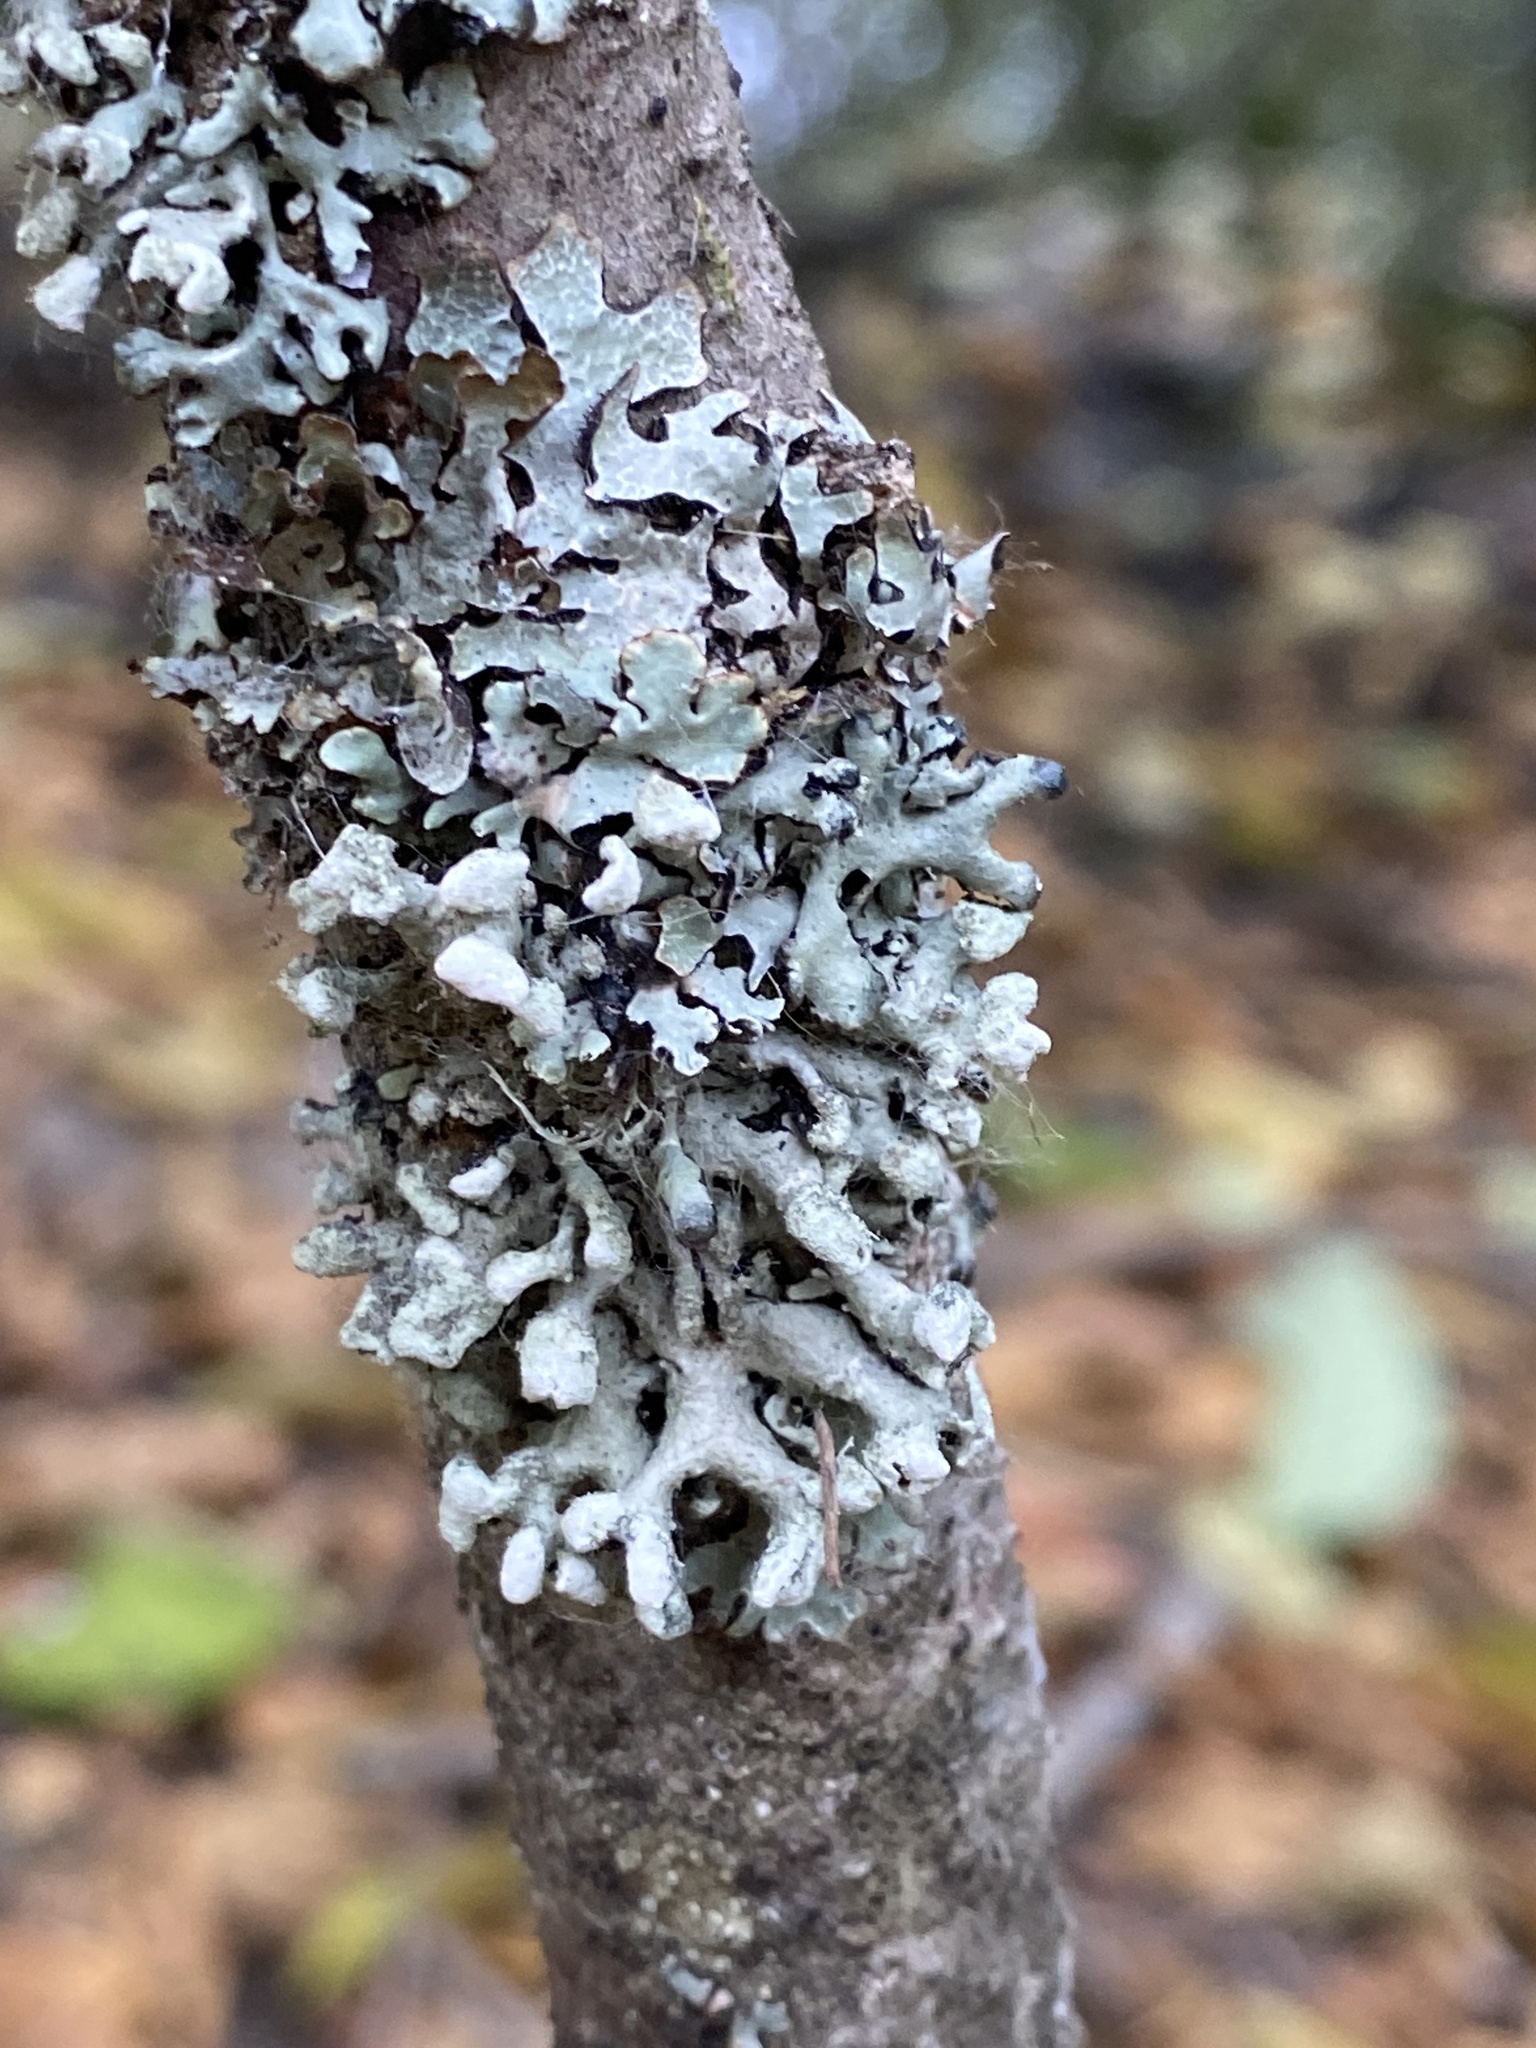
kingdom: Fungi
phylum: Ascomycota
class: Lecanoromycetes
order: Lecanorales
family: Parmeliaceae
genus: Hypogymnia
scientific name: Hypogymnia tubulosa
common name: Powder-headed tube lichen
